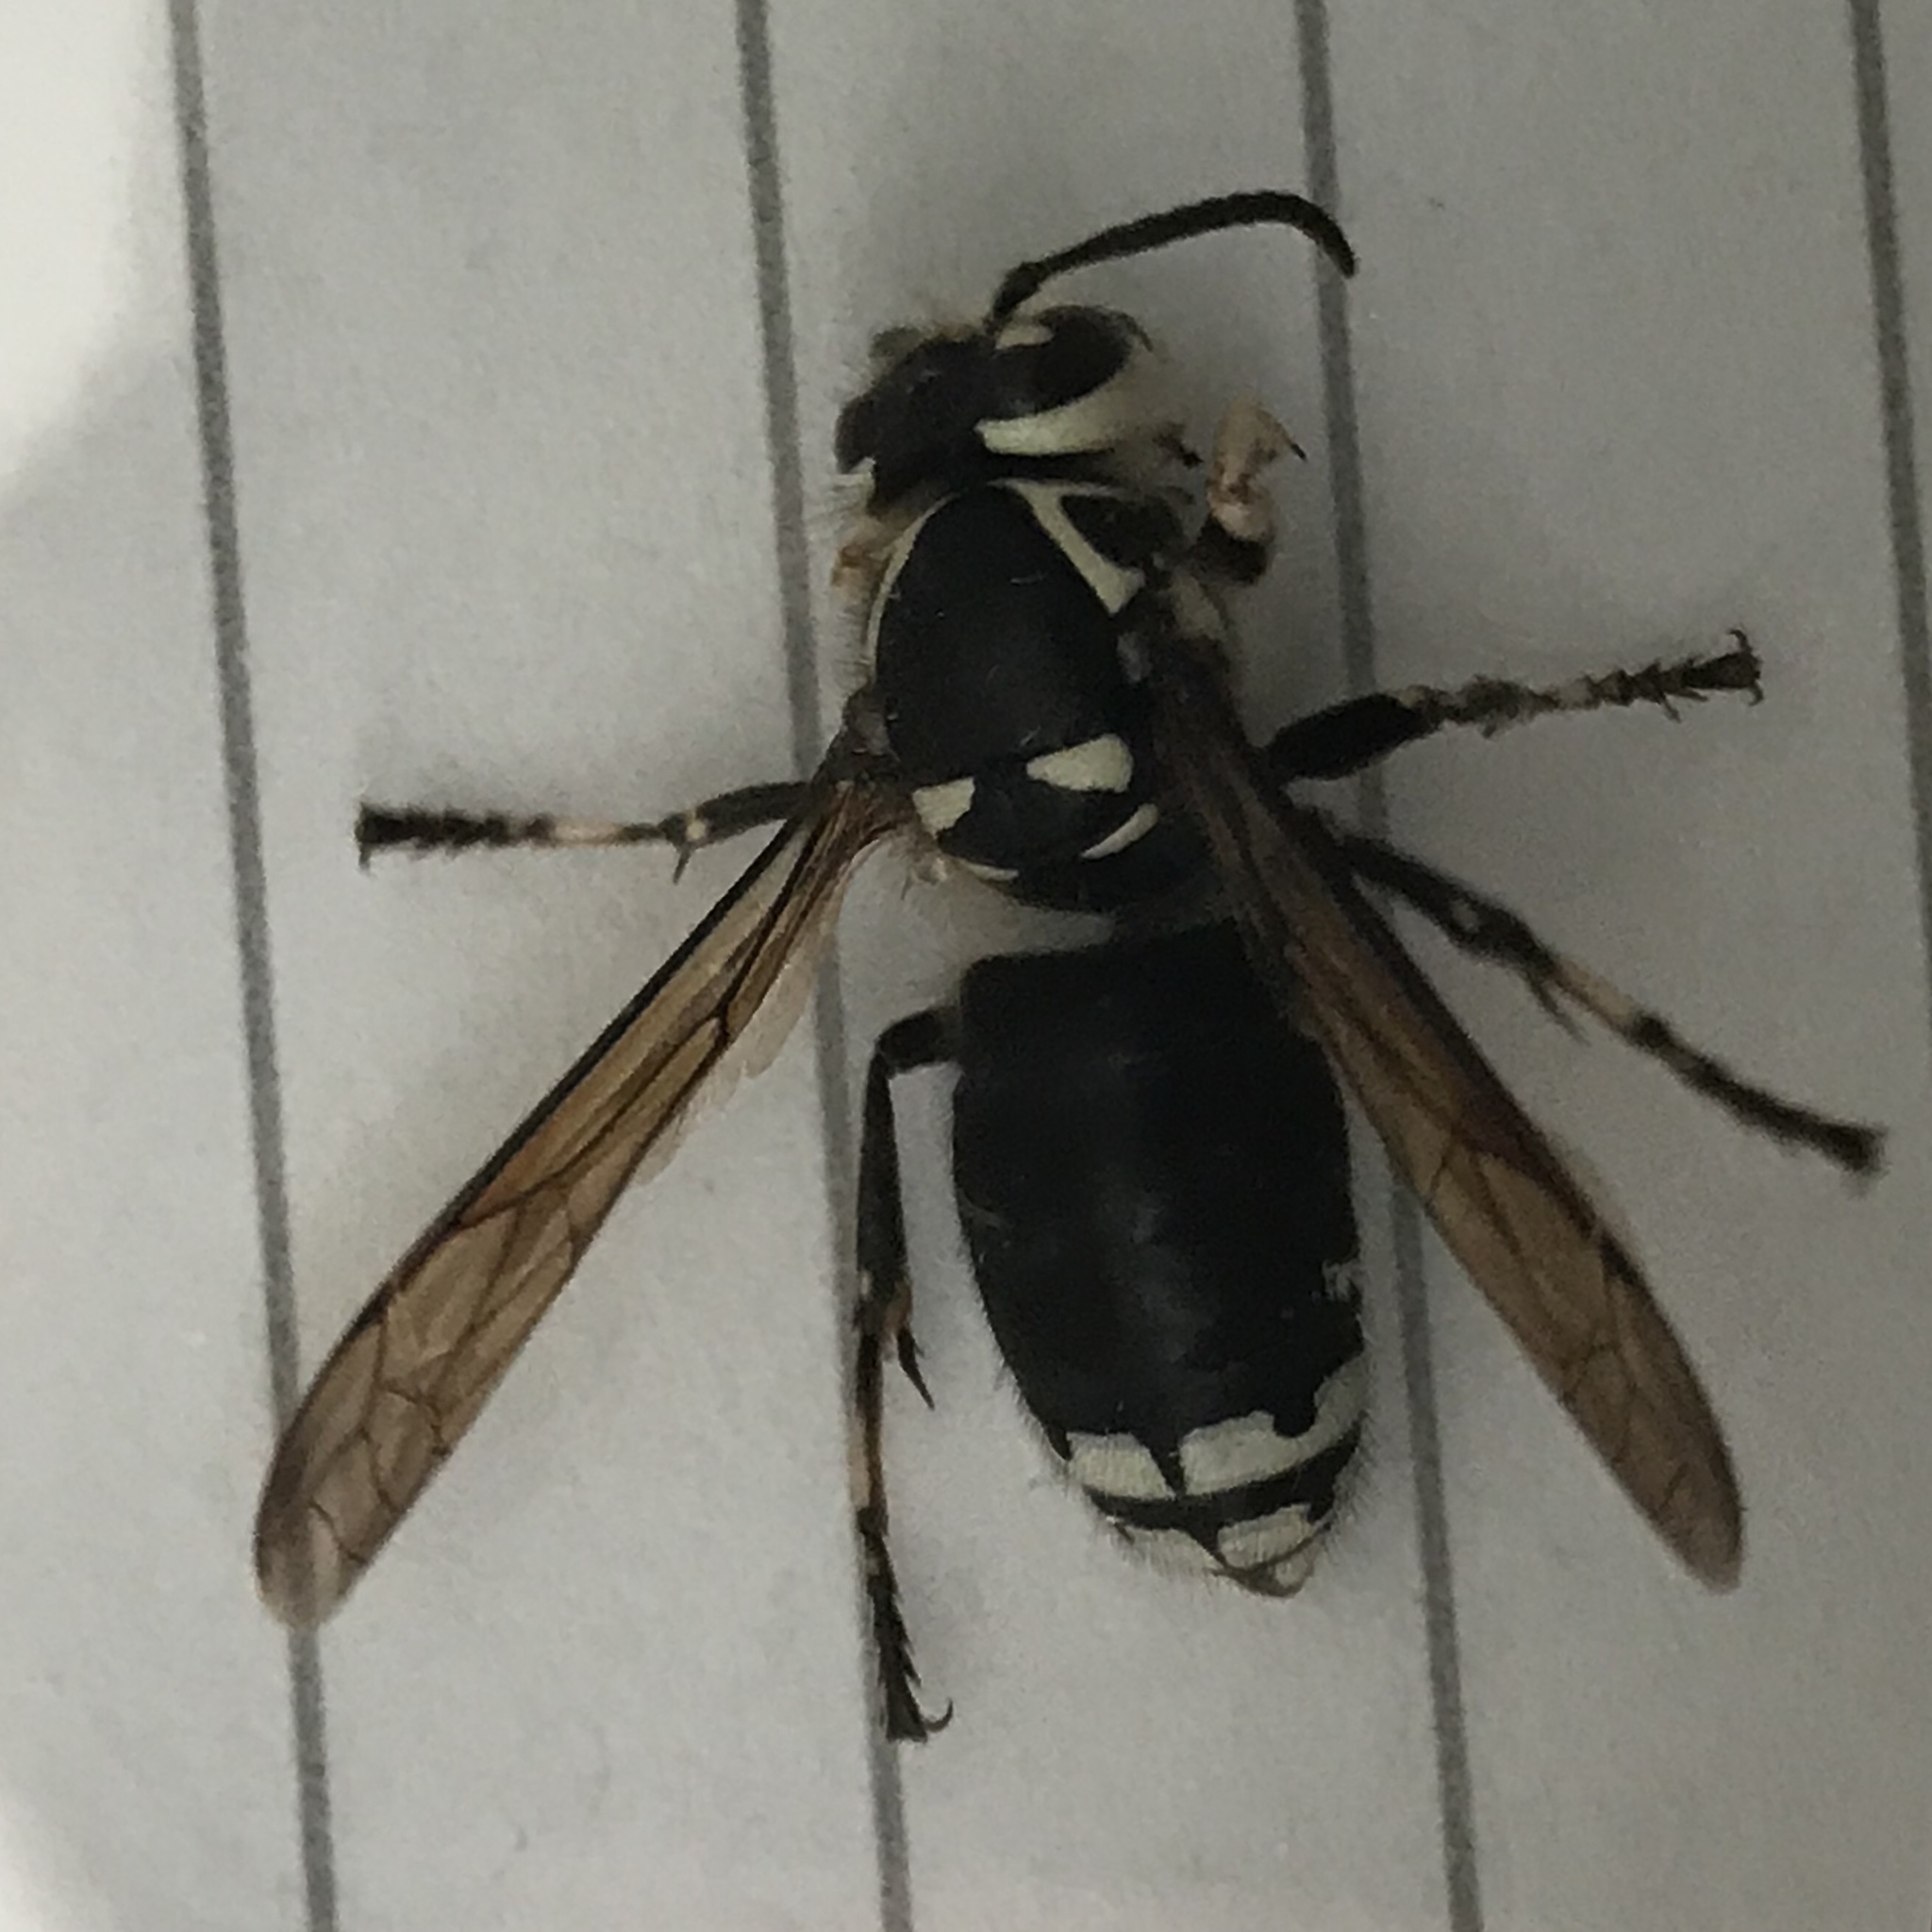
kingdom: Animalia
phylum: Arthropoda
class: Insecta
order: Hymenoptera
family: Vespidae
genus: Dolichovespula
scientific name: Dolichovespula maculata
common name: Bald-faced hornet
